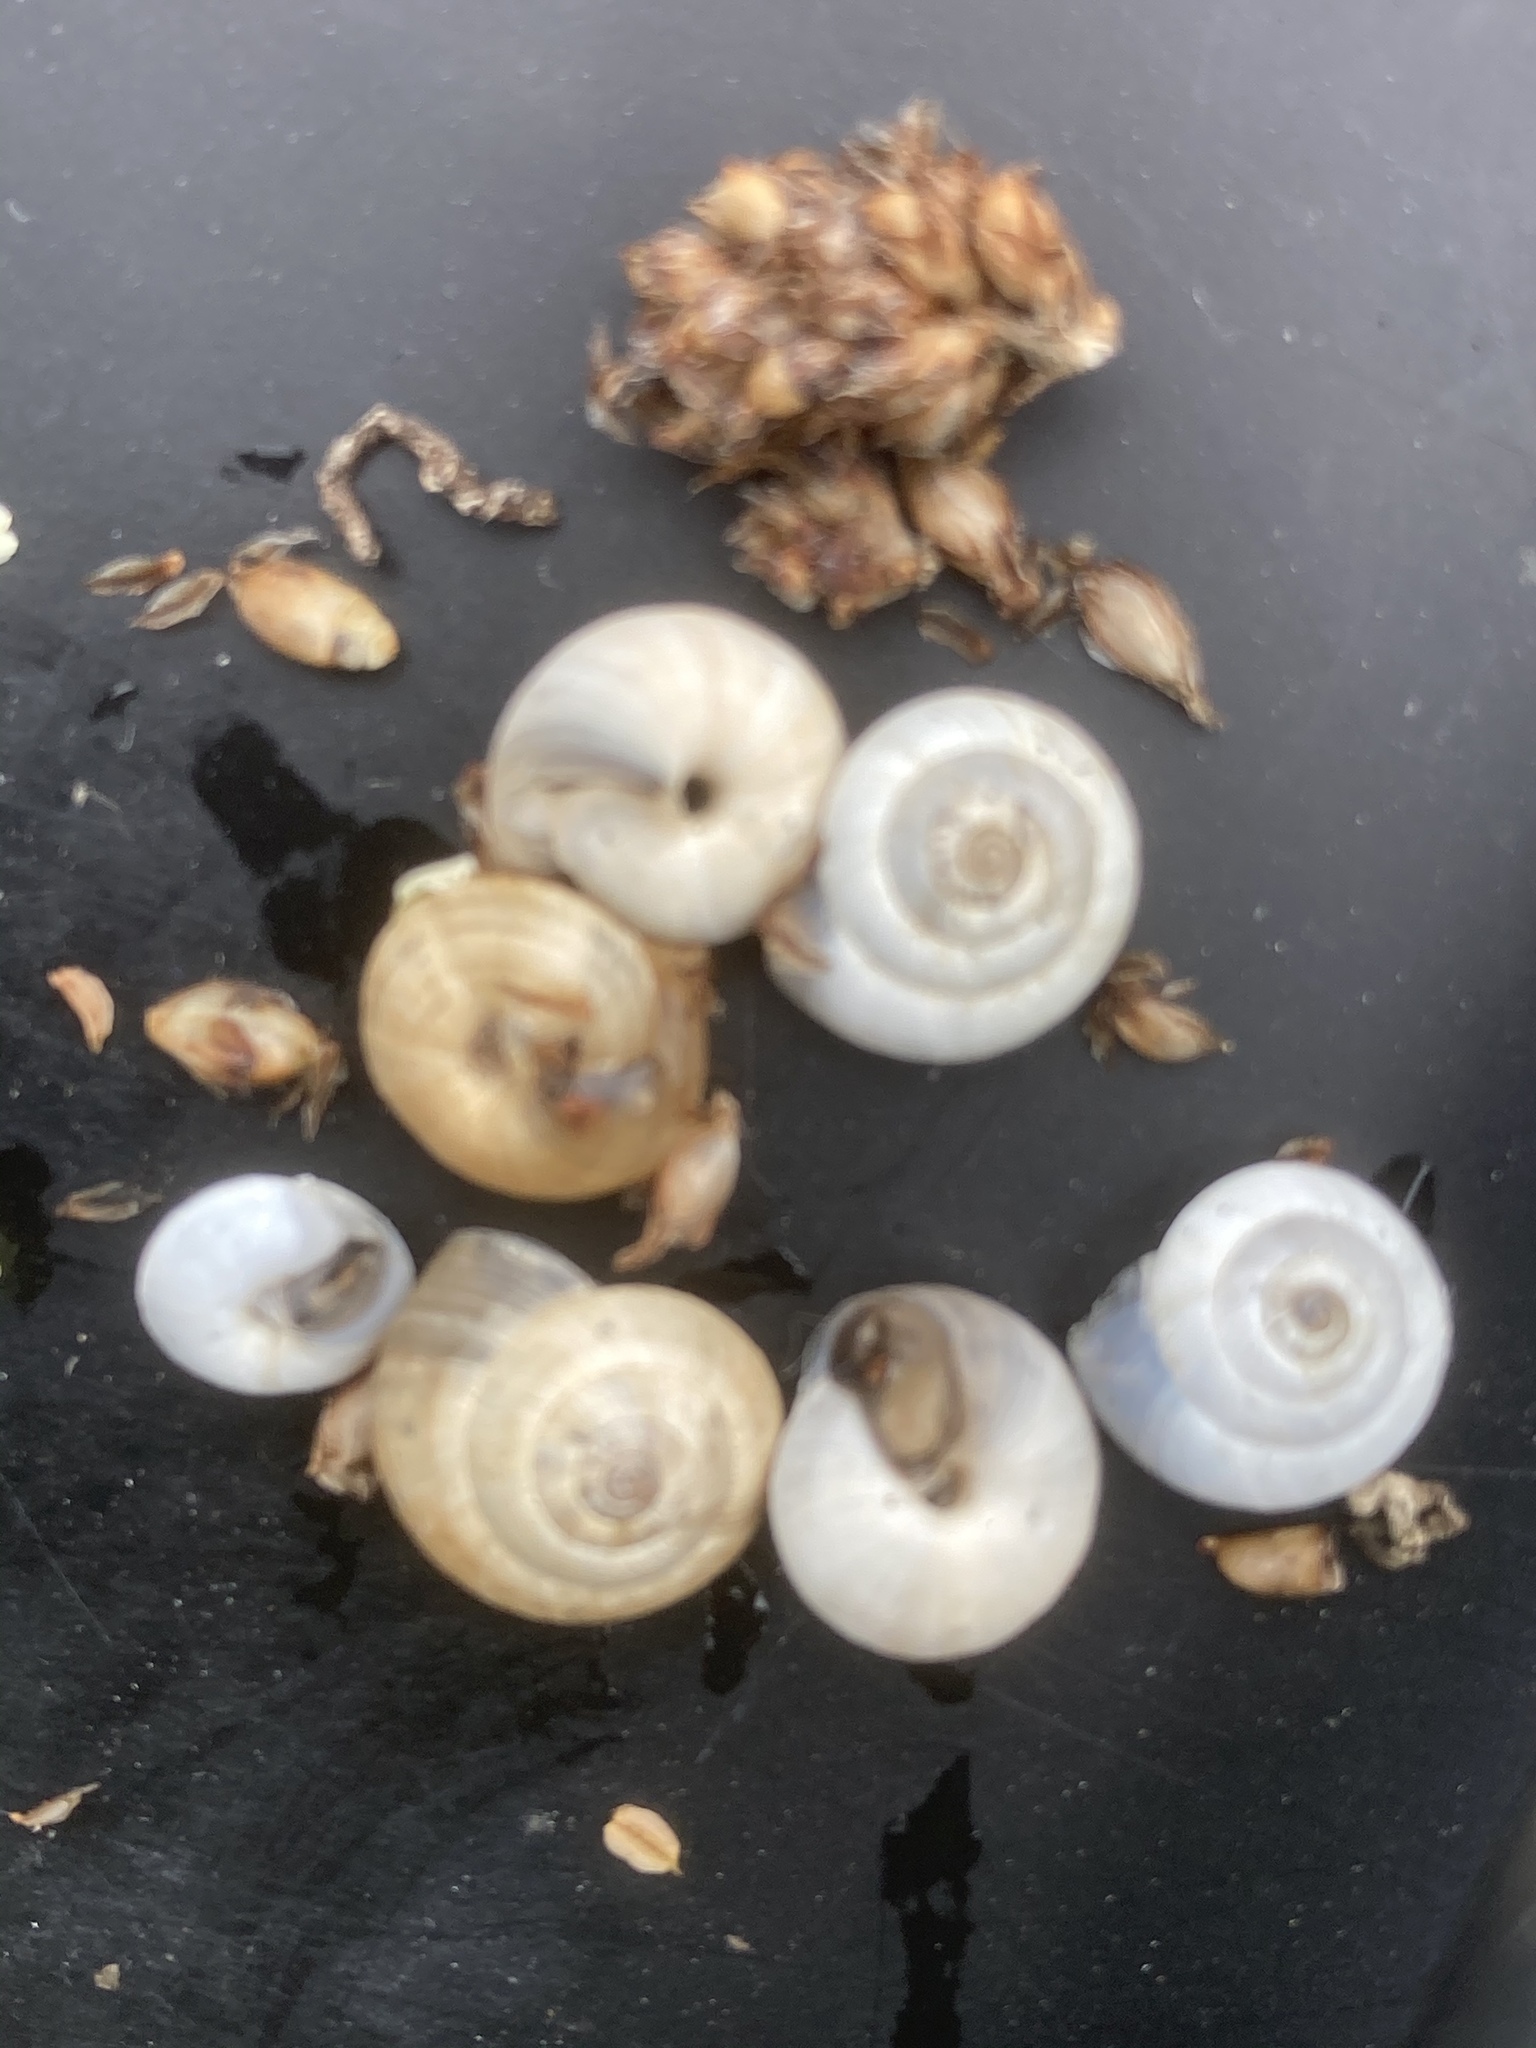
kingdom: Animalia
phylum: Mollusca
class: Gastropoda
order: Stylommatophora
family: Geomitridae
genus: Cernuella
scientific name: Cernuella virgata
